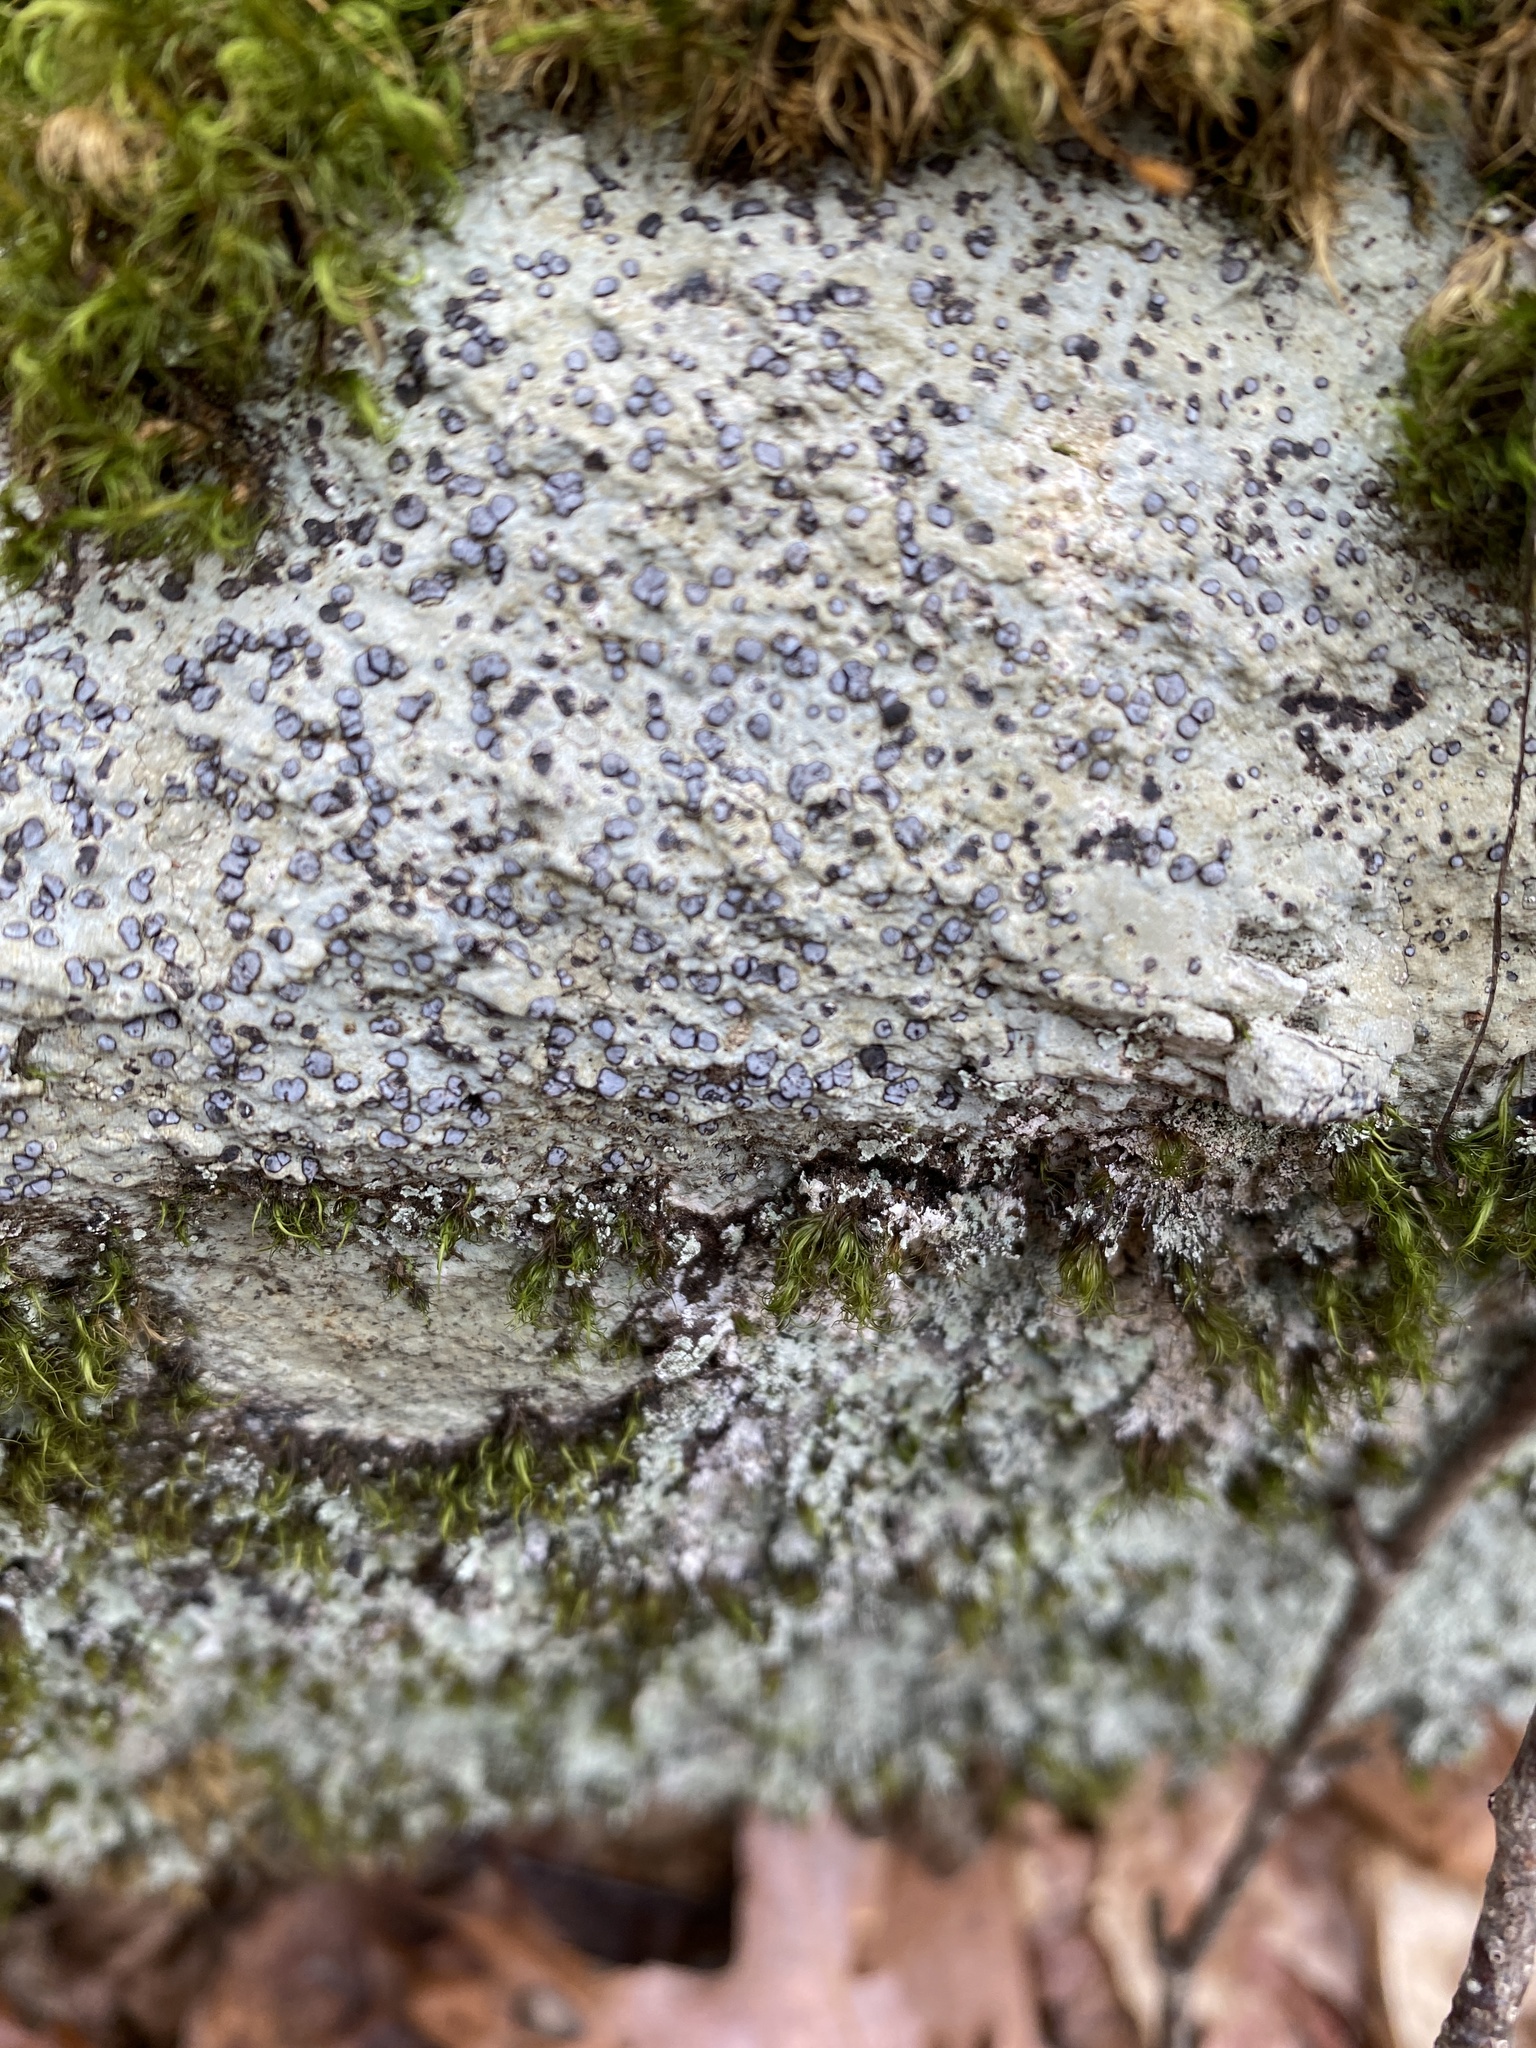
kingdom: Fungi
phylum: Ascomycota
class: Lecanoromycetes
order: Lecideales
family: Lecideaceae
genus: Porpidia
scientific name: Porpidia albocaerulescens
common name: Smokey-eyed boulder lichen
